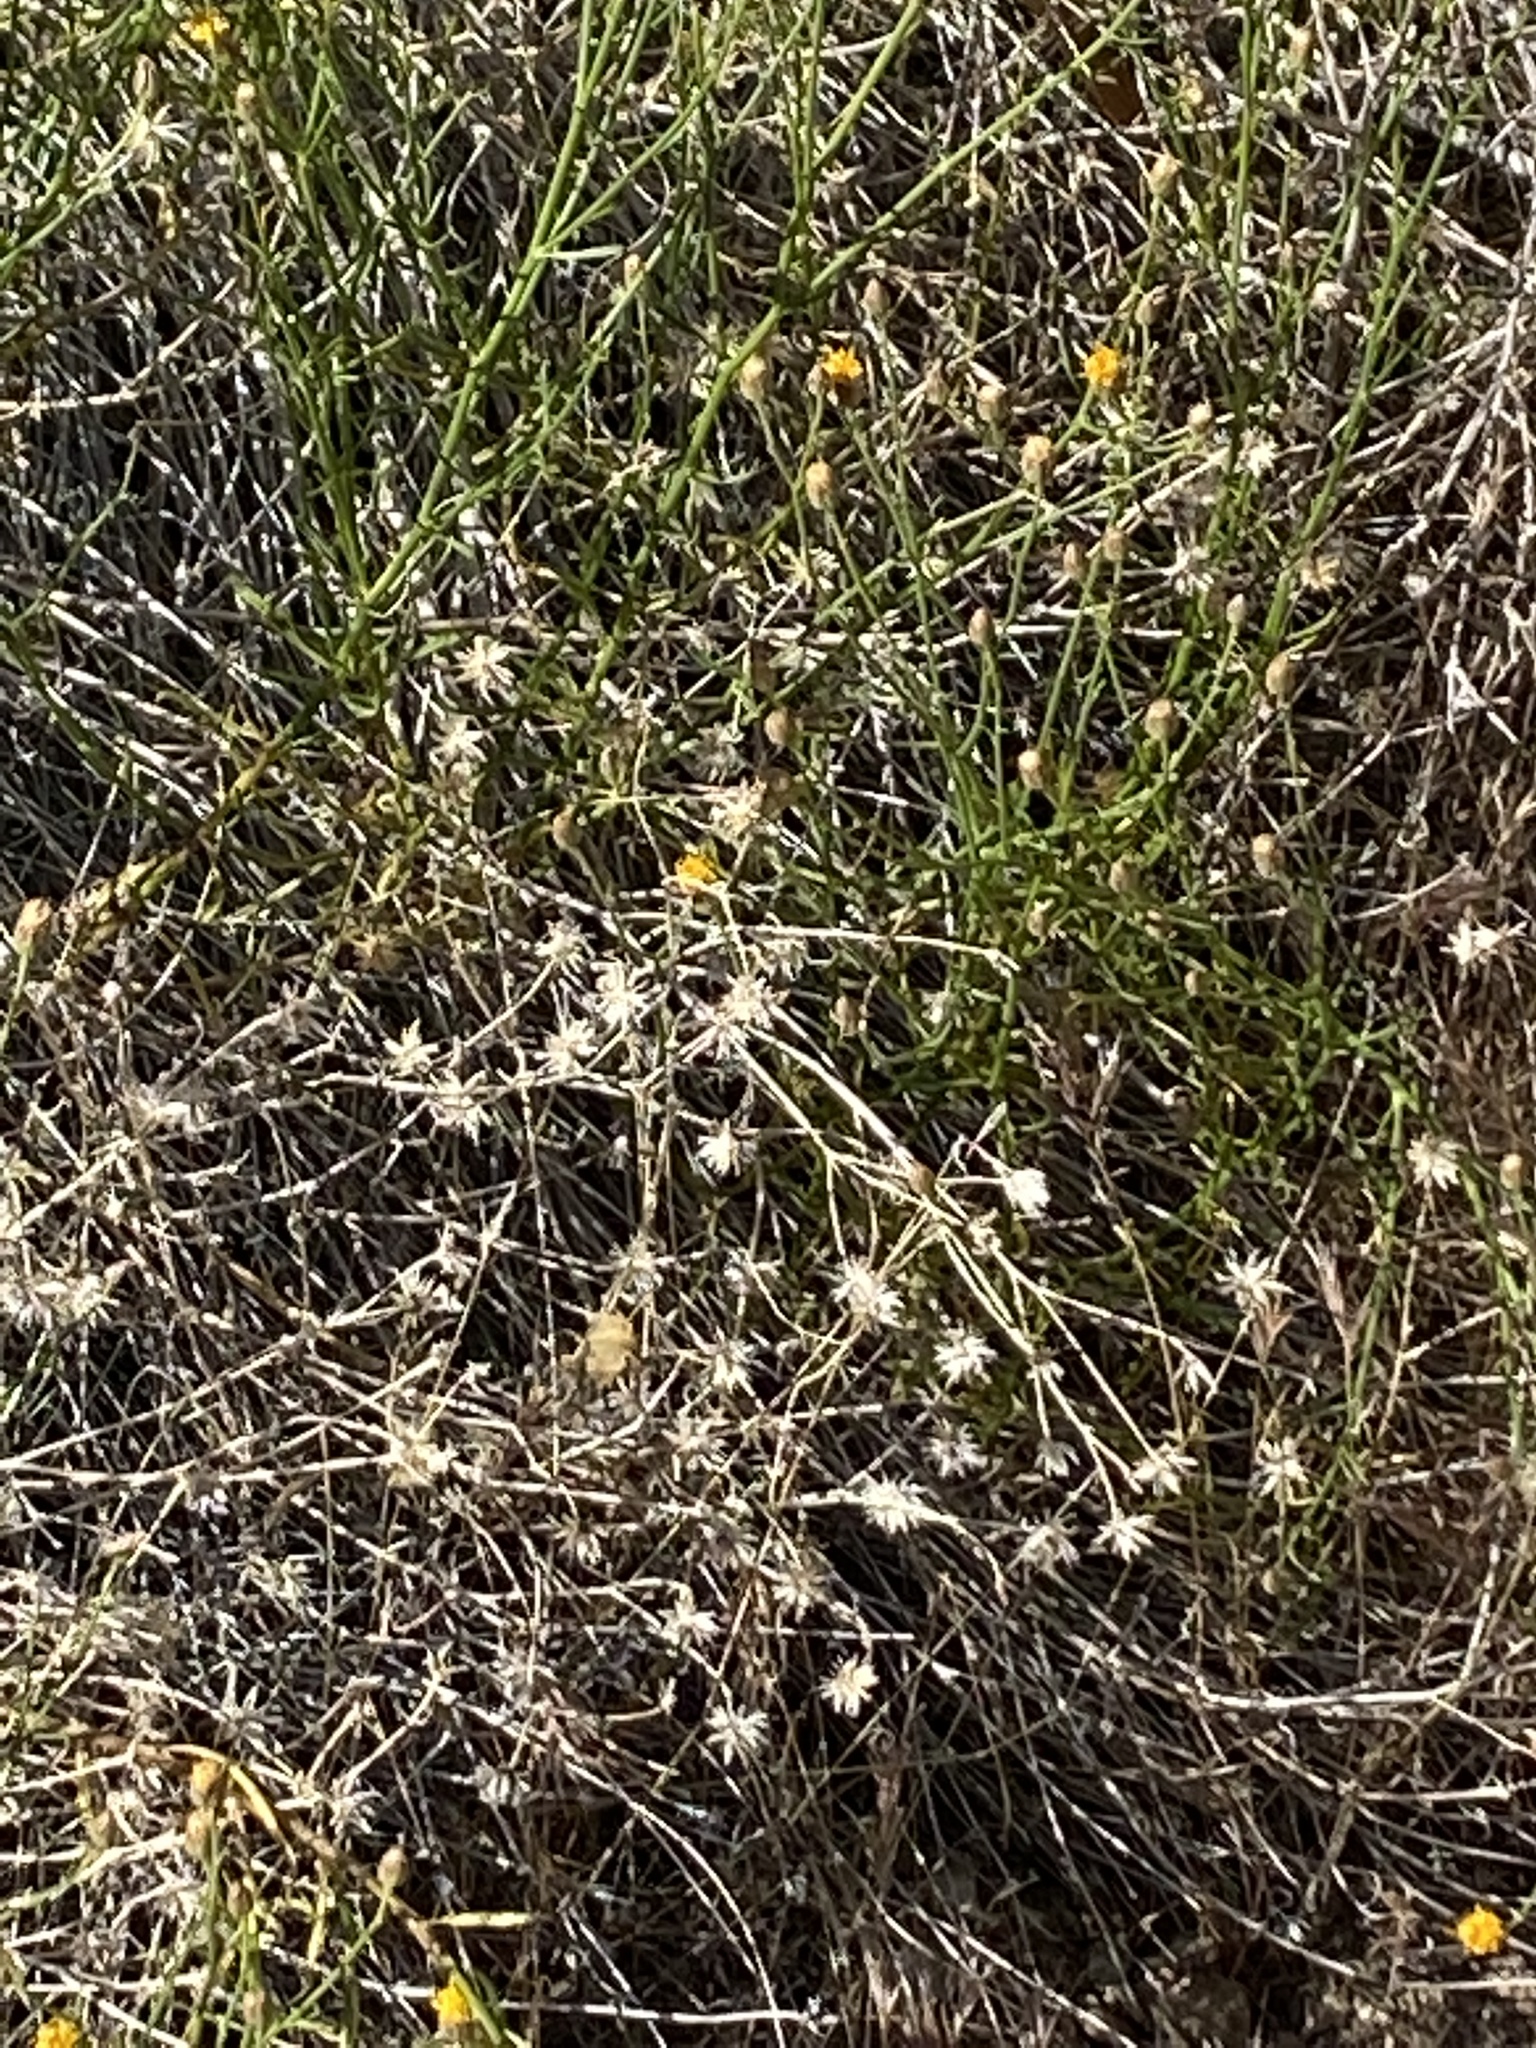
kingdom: Plantae
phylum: Tracheophyta
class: Magnoliopsida
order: Asterales
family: Asteraceae
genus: Bebbia
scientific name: Bebbia juncea
